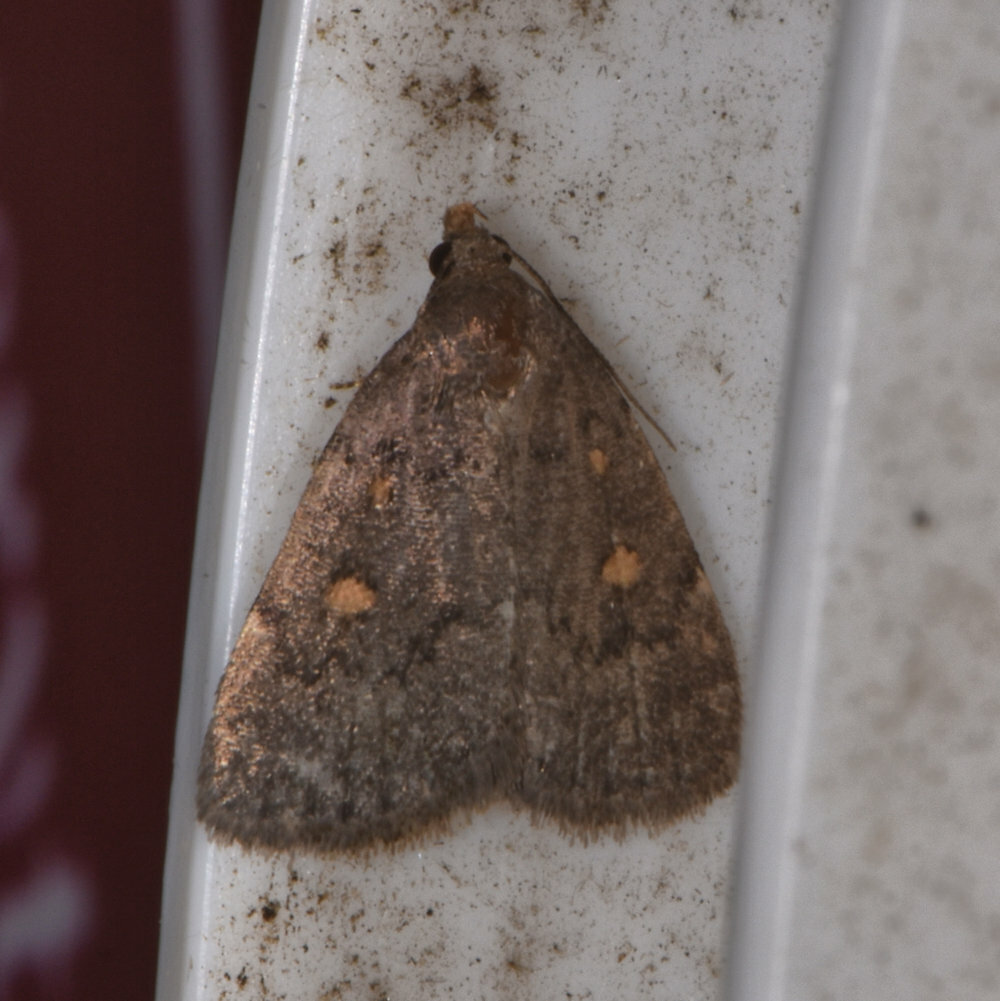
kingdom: Animalia
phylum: Arthropoda
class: Insecta
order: Lepidoptera
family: Erebidae
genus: Idia
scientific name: Idia diminuendis
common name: Orange-spotted idia moth
